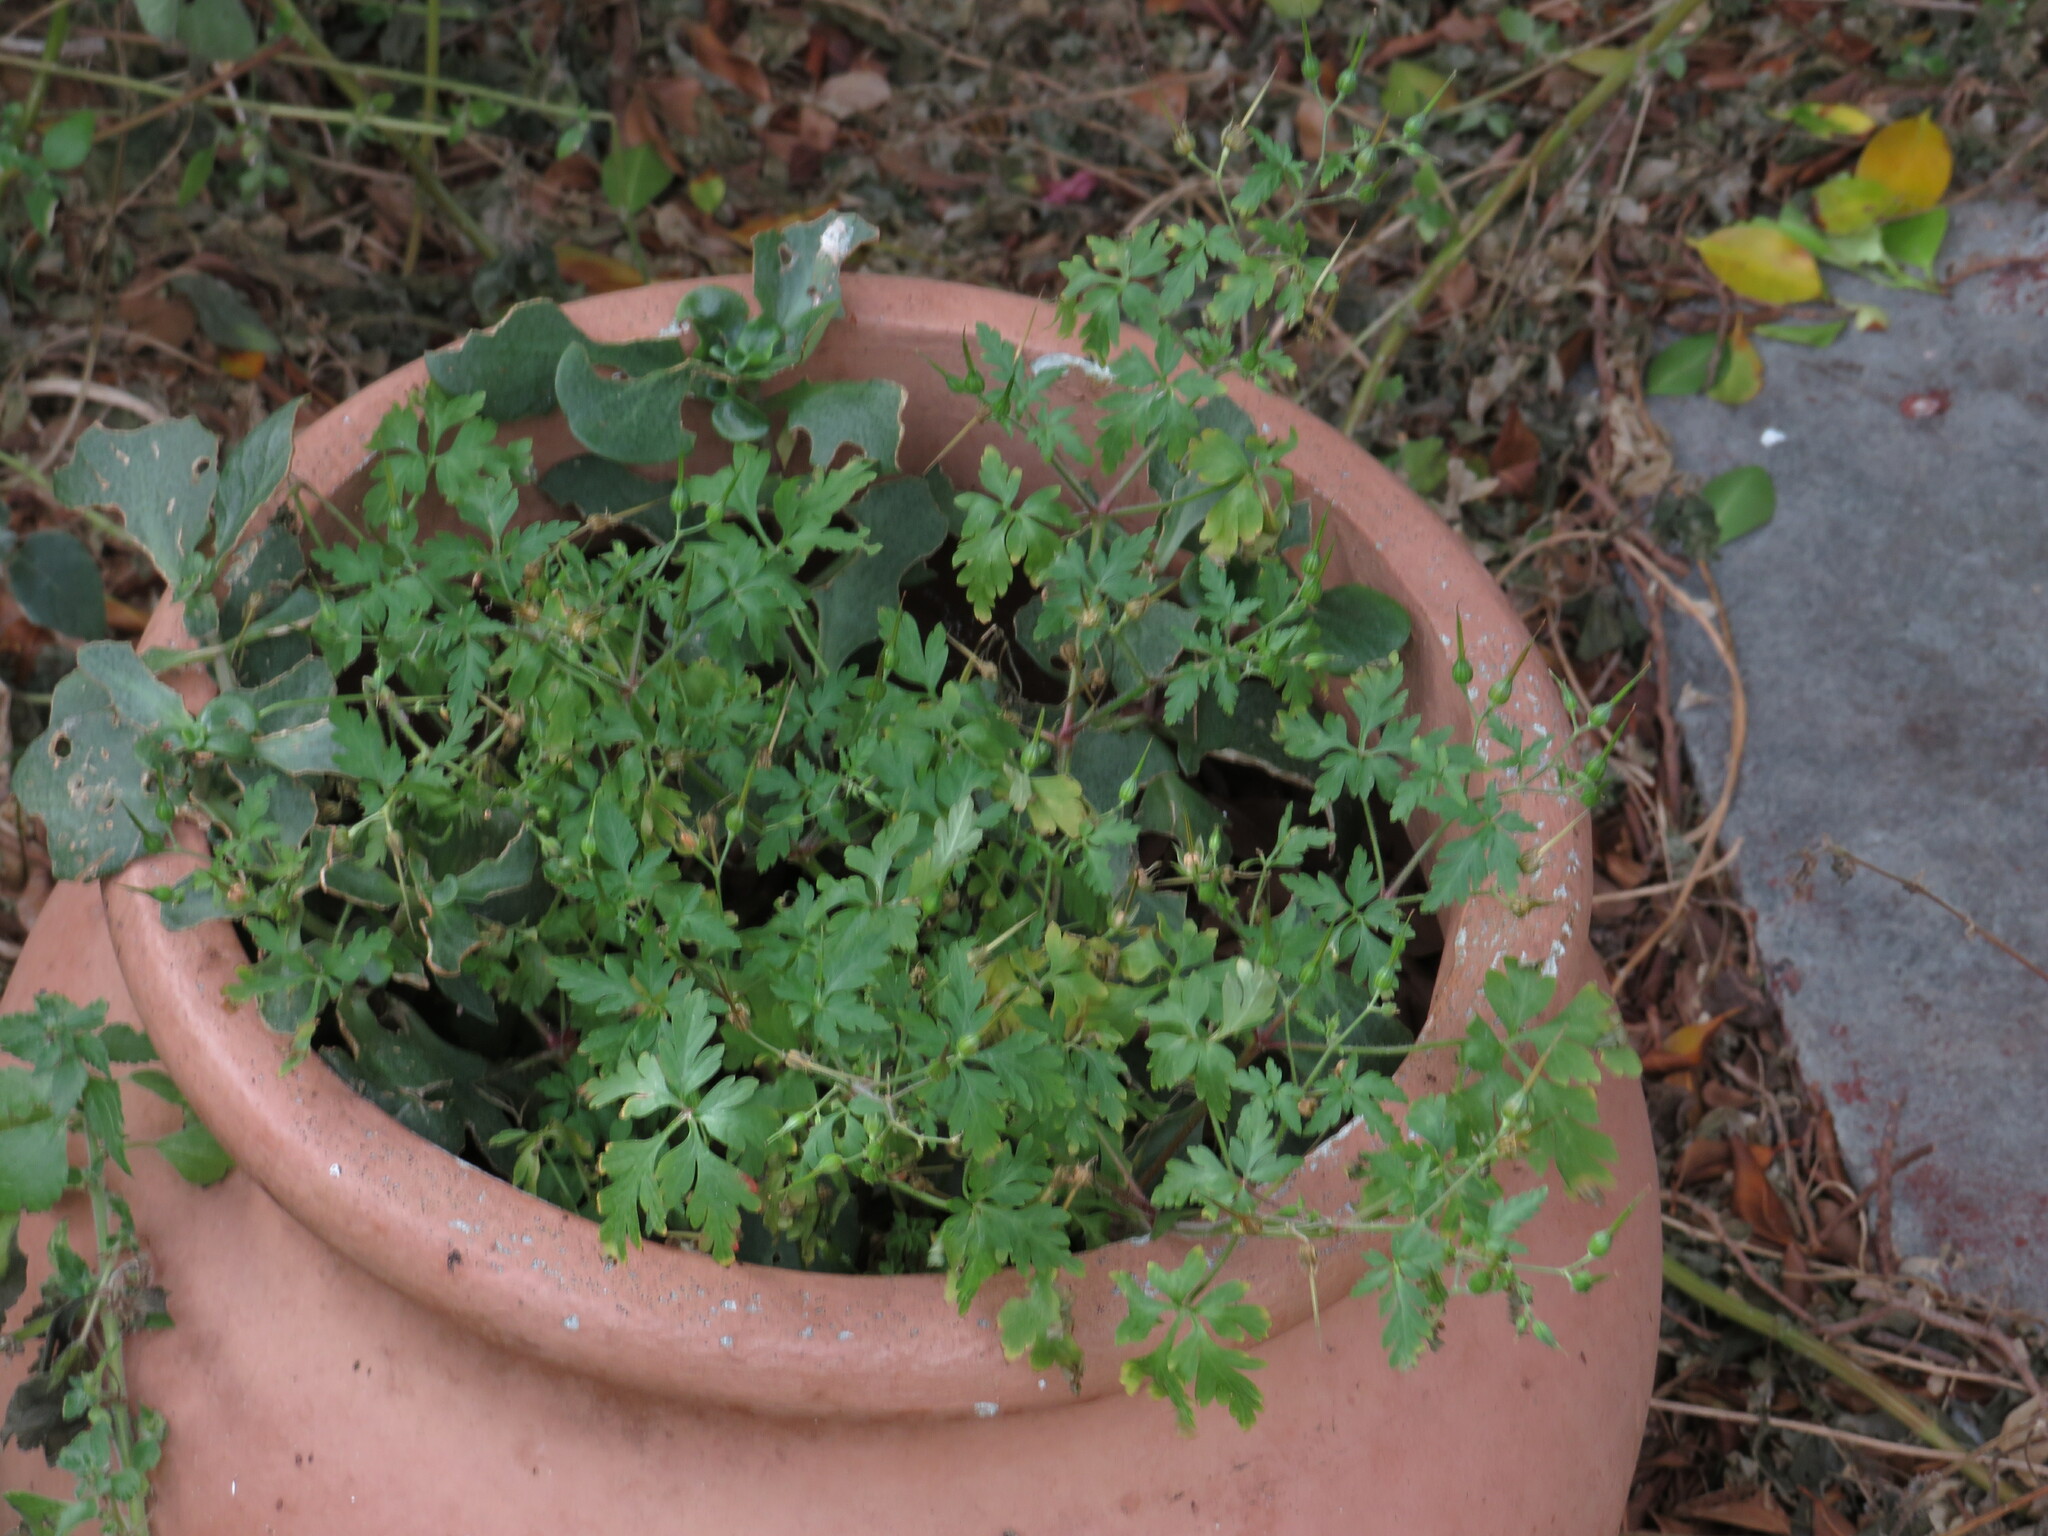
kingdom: Plantae
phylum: Tracheophyta
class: Magnoliopsida
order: Geraniales
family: Geraniaceae
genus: Geranium
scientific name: Geranium purpureum
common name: Little-robin
